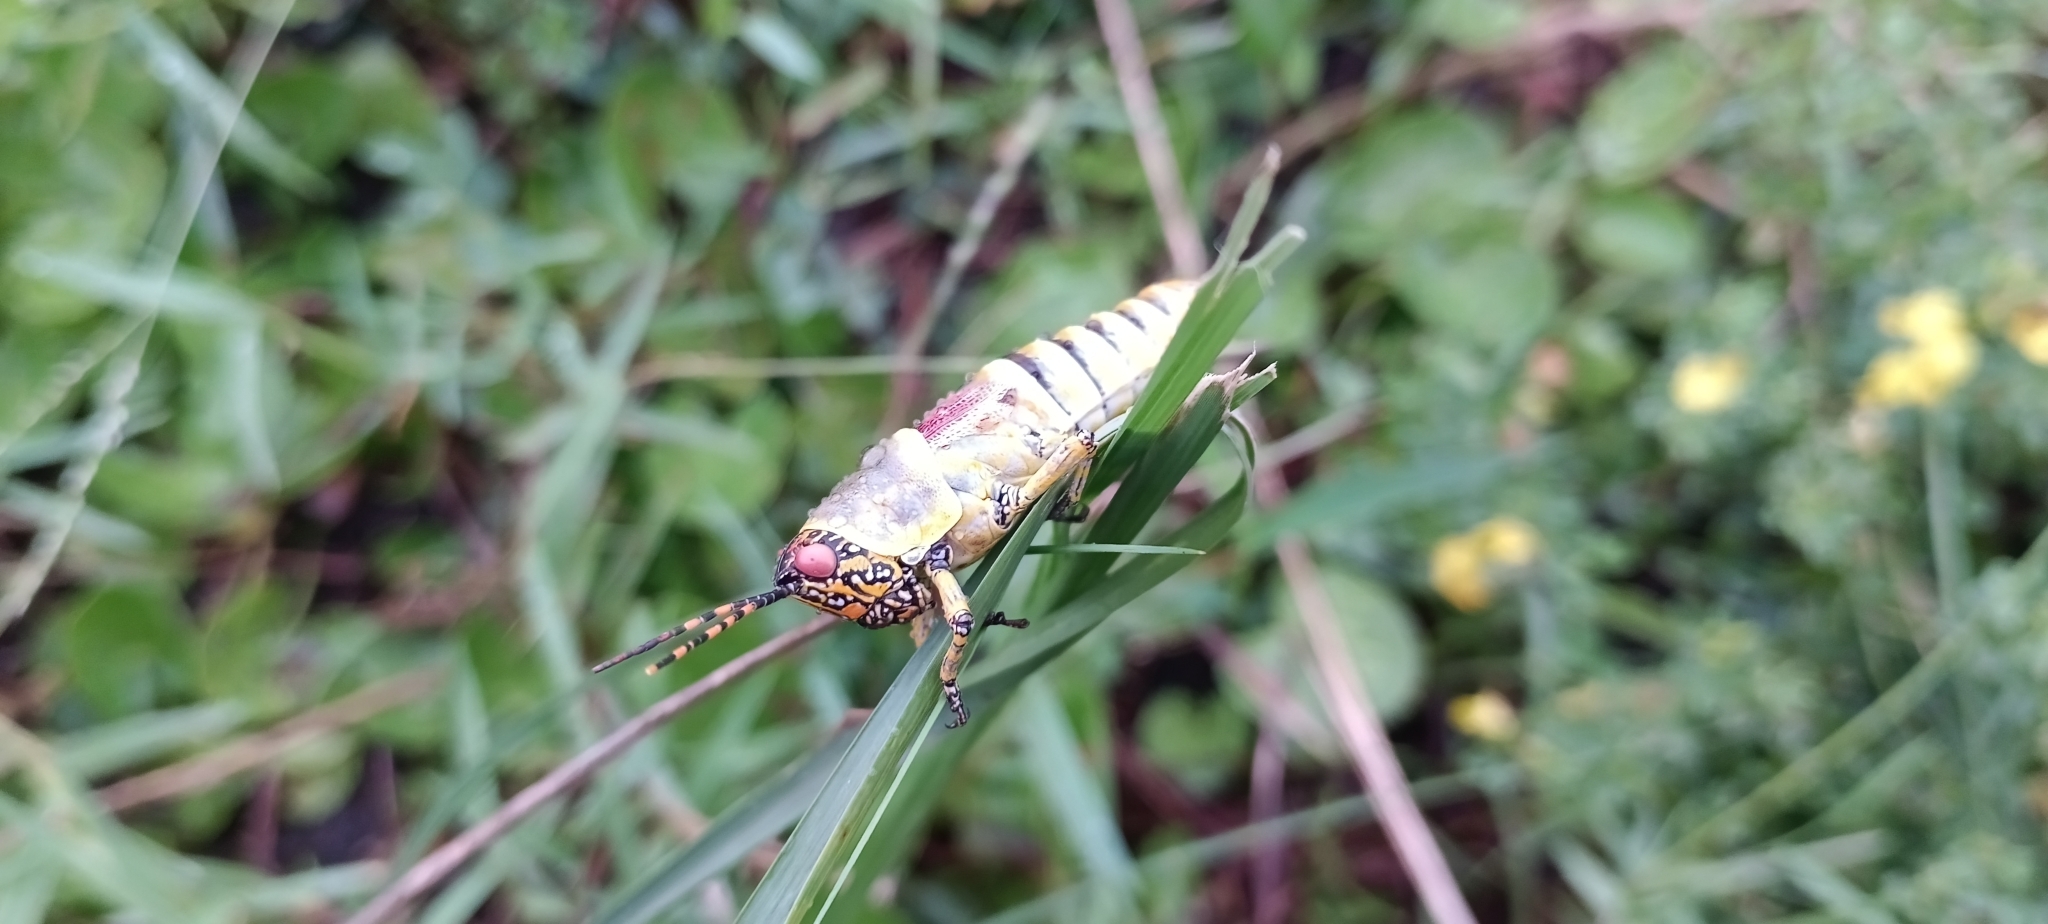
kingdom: Animalia
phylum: Arthropoda
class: Insecta
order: Orthoptera
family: Pyrgomorphidae
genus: Zonocerus
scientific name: Zonocerus elegans
